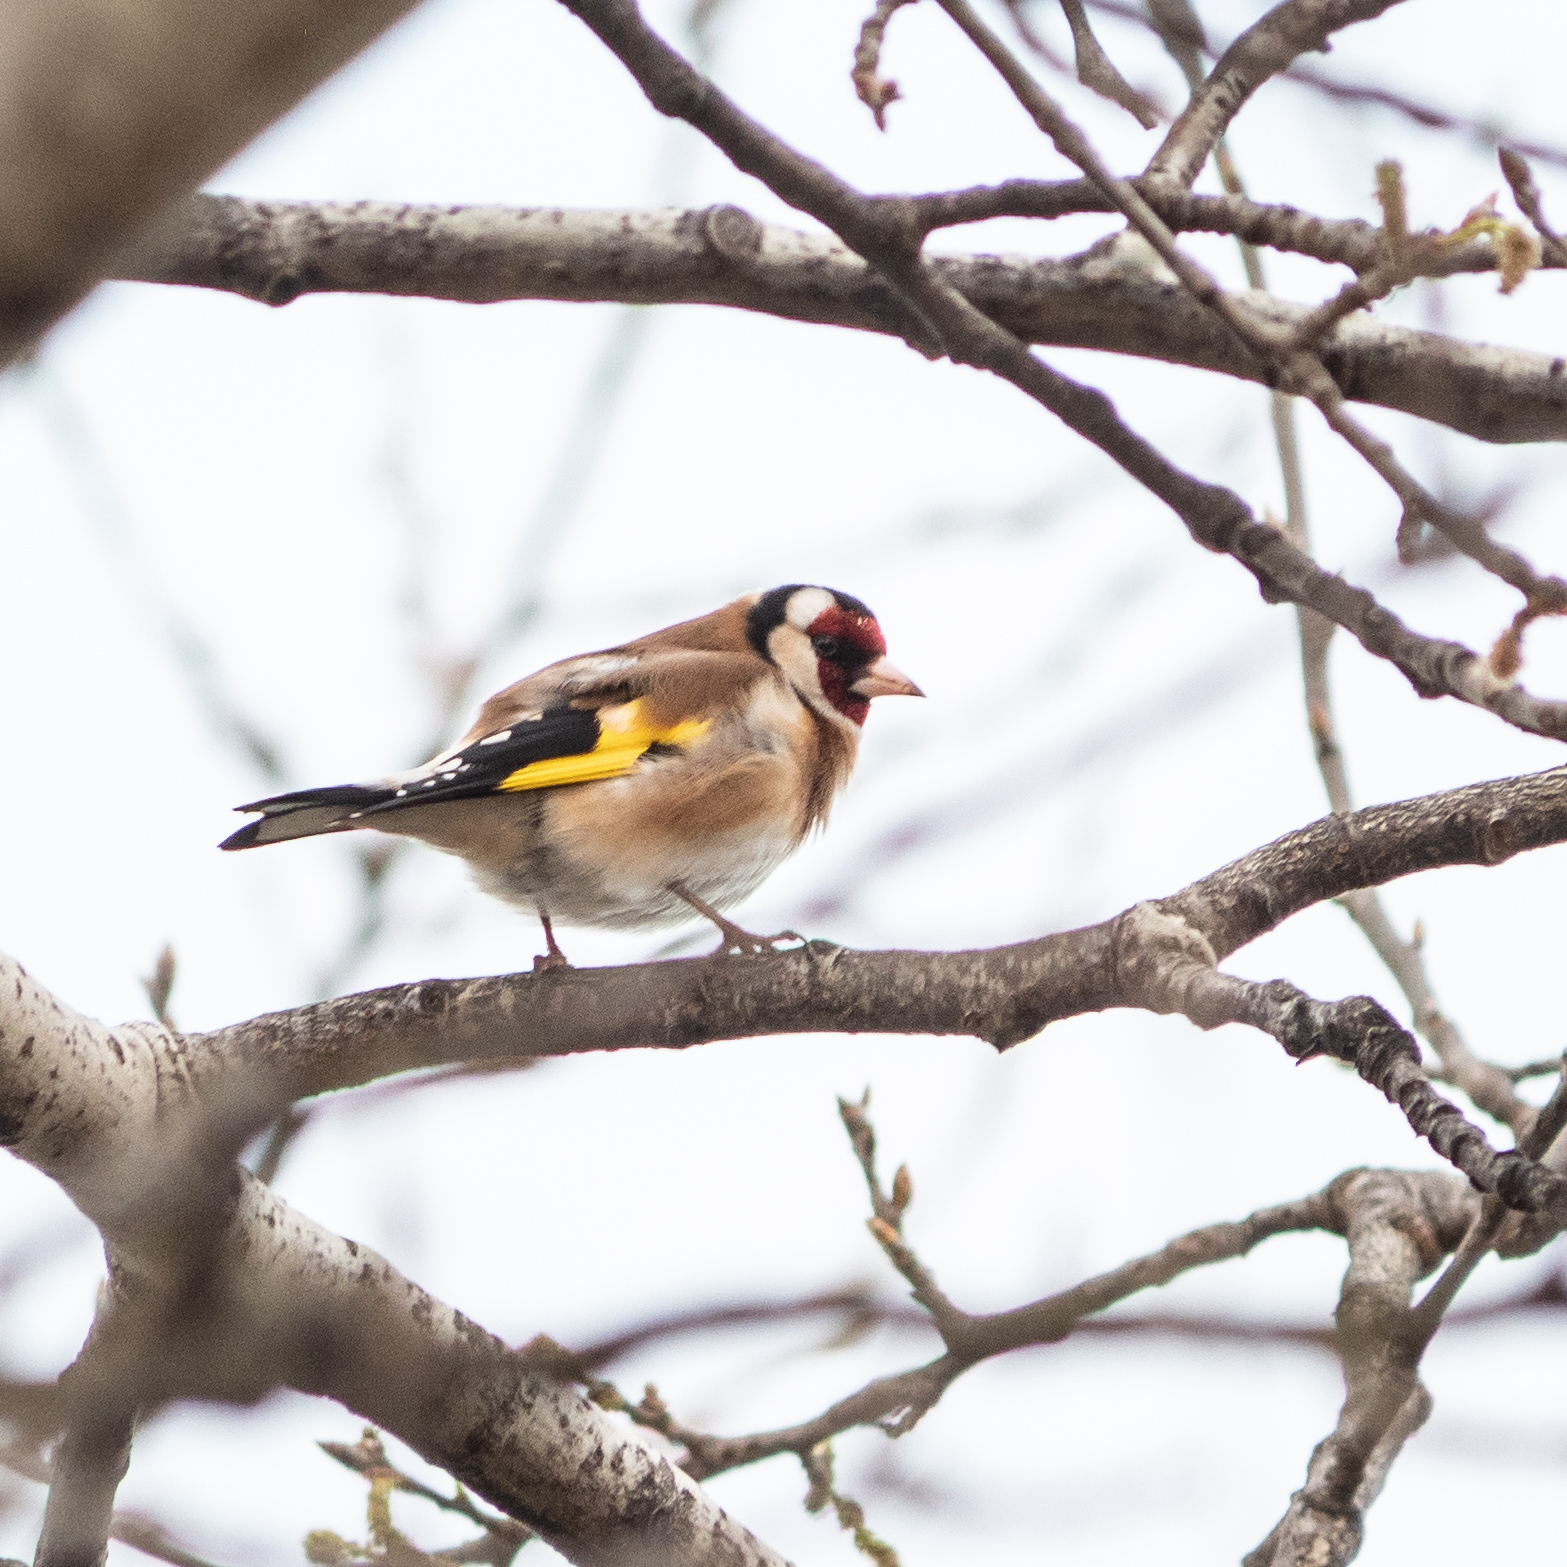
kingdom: Animalia
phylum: Chordata
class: Aves
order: Passeriformes
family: Fringillidae
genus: Carduelis
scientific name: Carduelis carduelis
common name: European goldfinch
